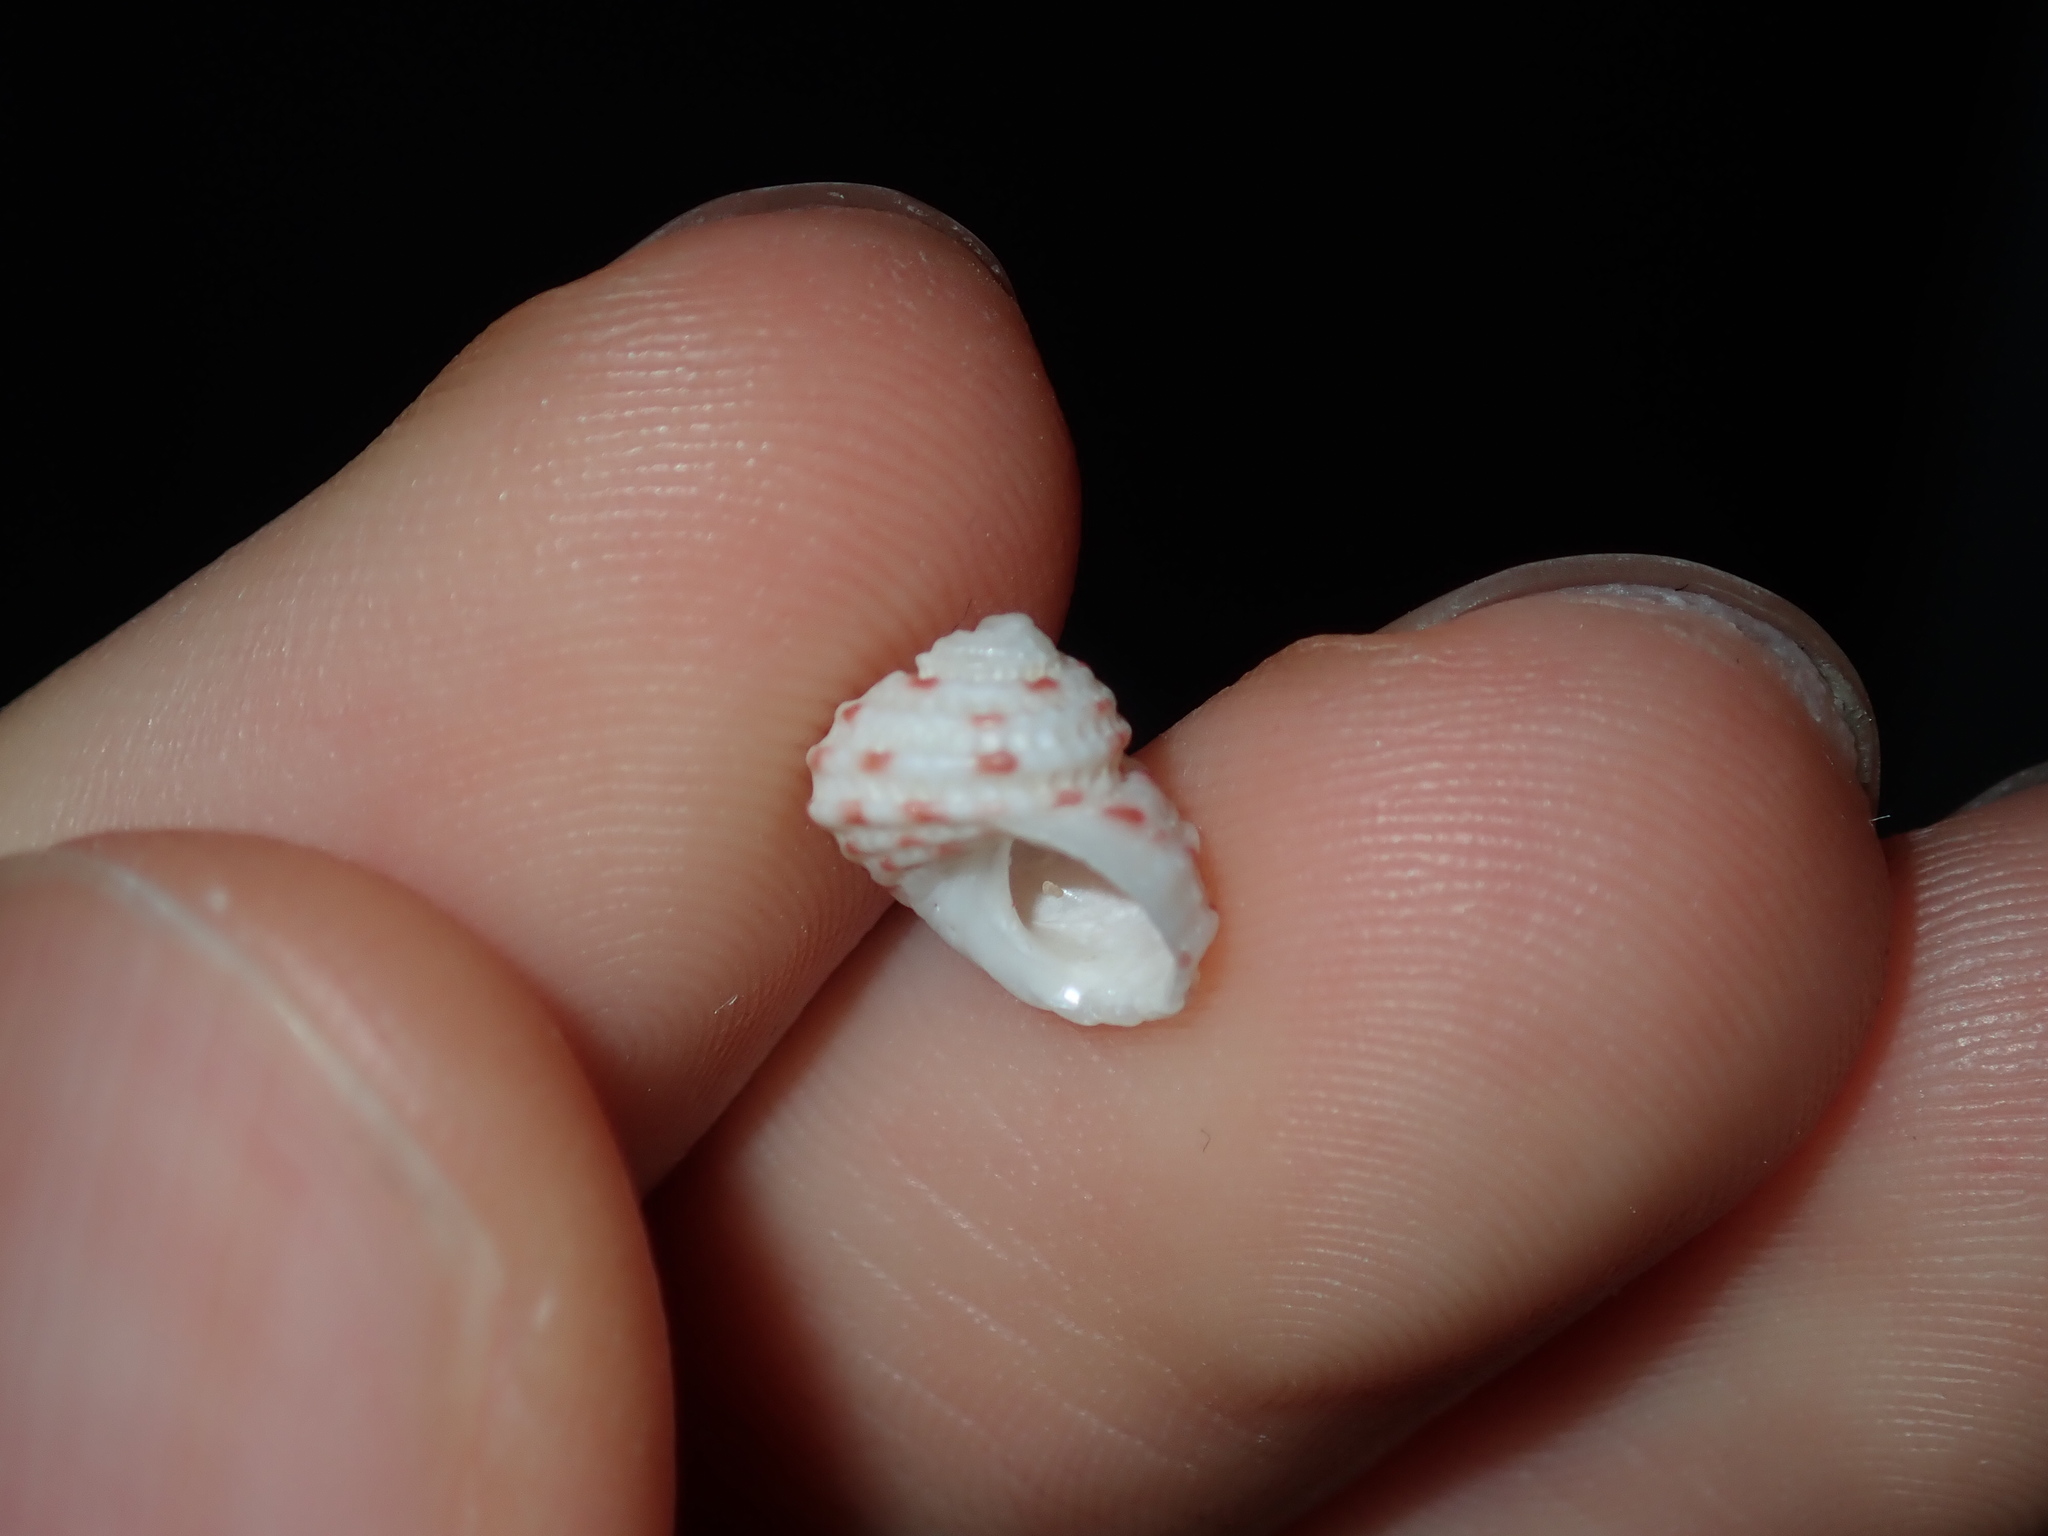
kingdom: Animalia
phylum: Mollusca
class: Gastropoda
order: Seguenziida
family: Chilodontaidae
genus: Vaceuchelus
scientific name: Vaceuchelus ampullus
